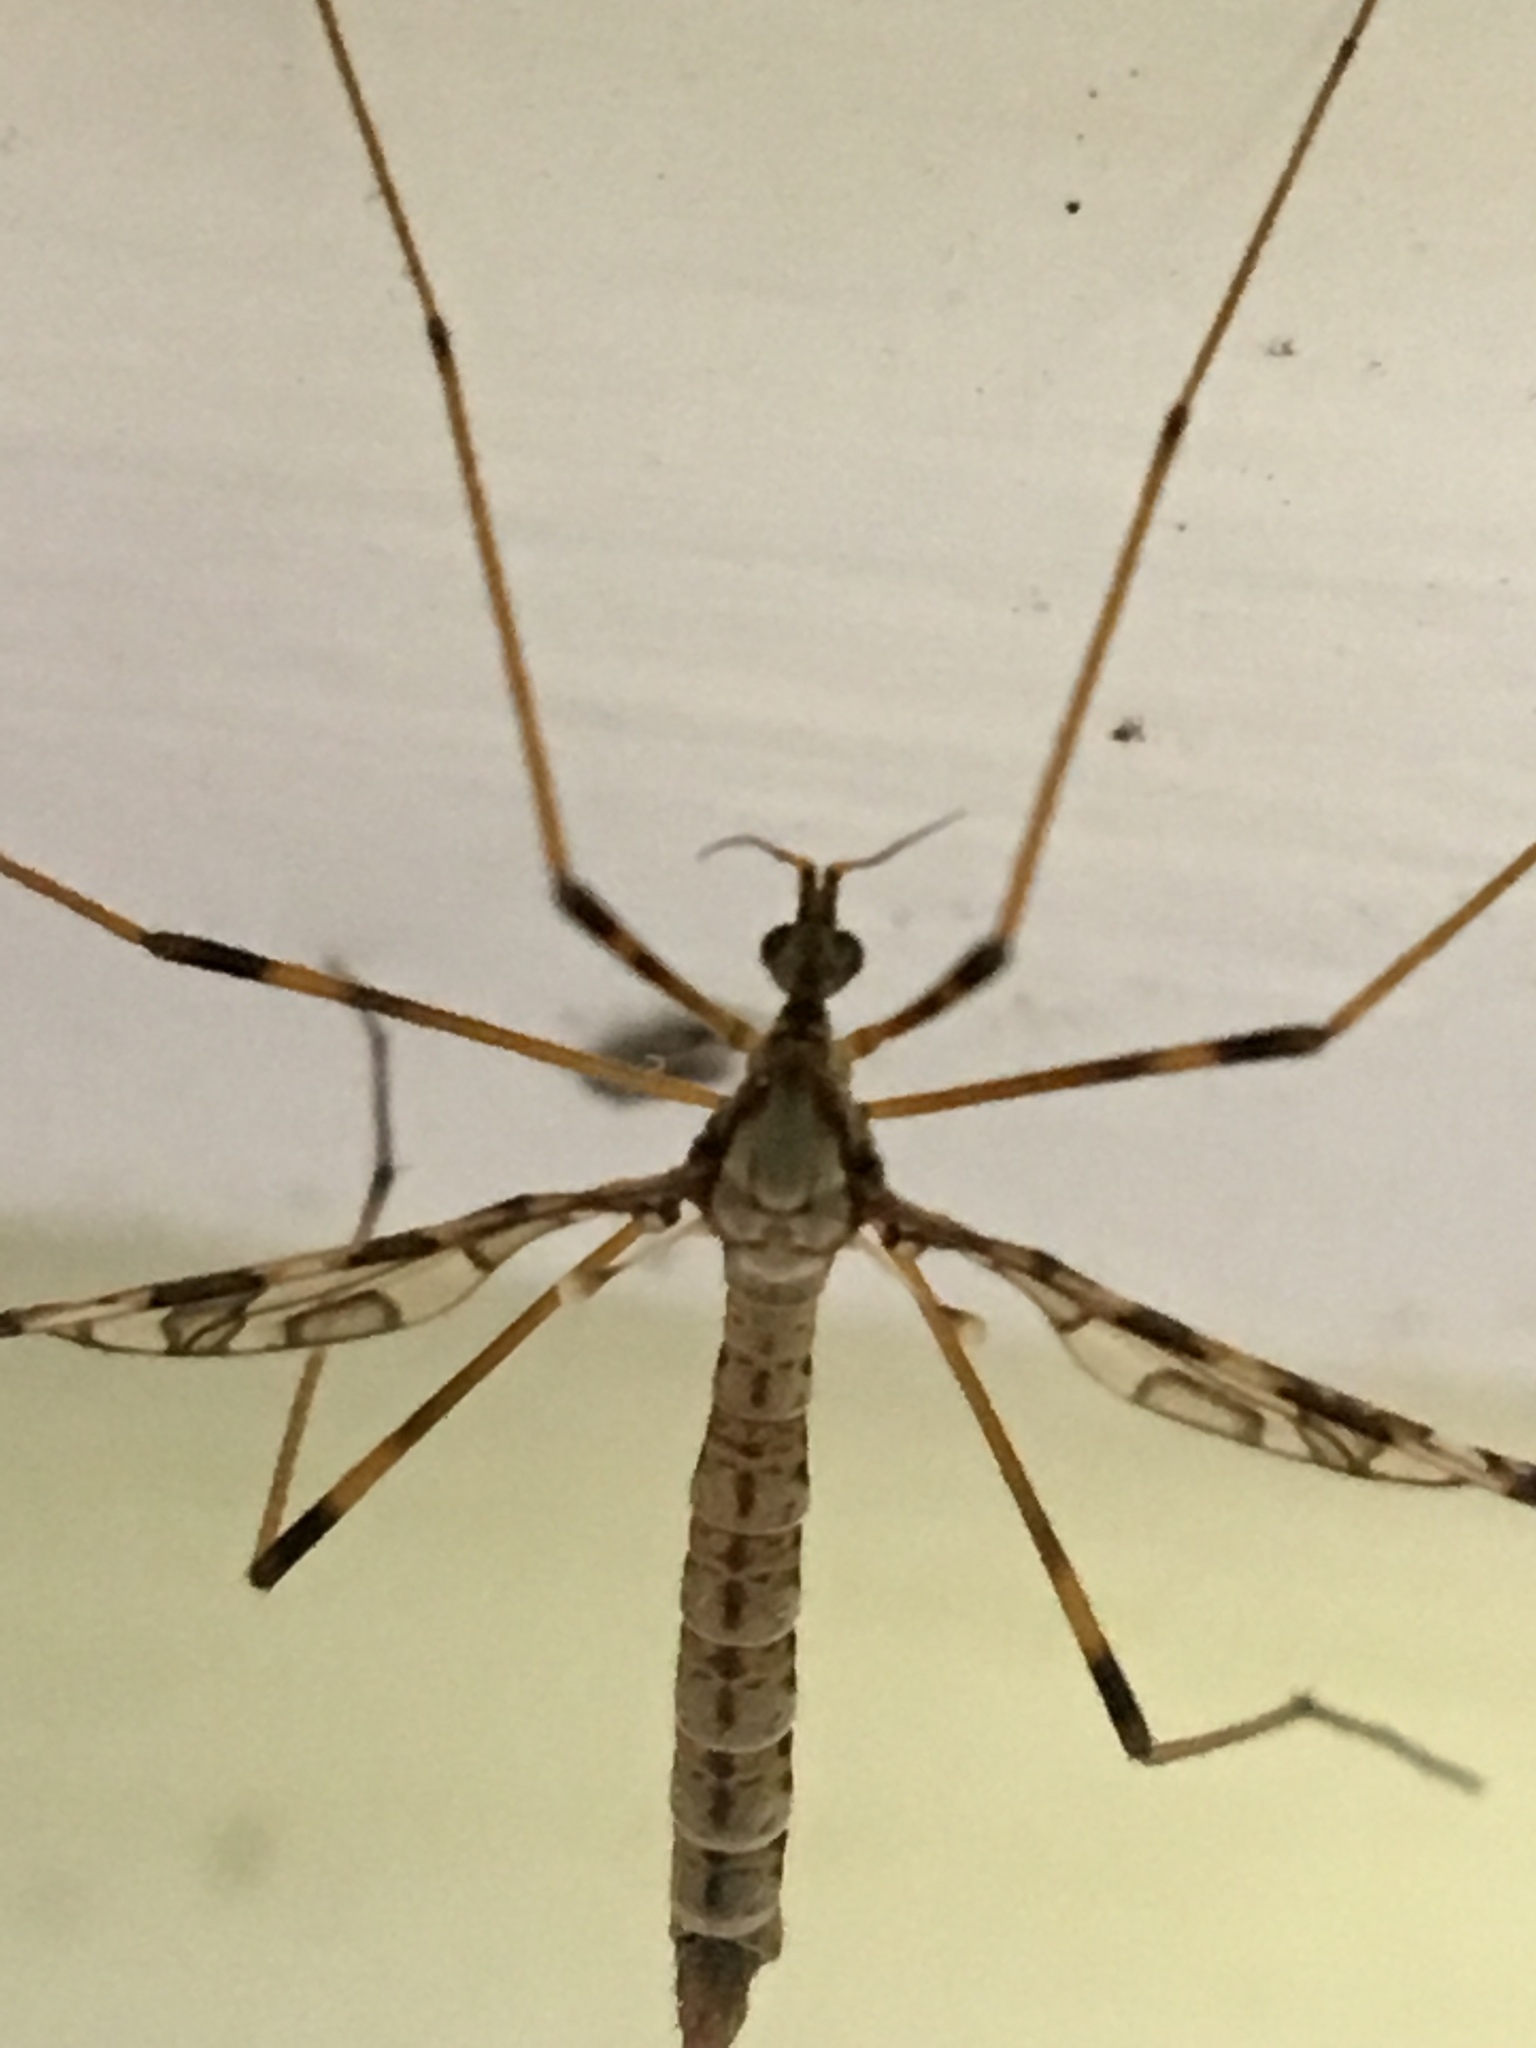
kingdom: Animalia
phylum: Arthropoda
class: Insecta
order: Diptera
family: Limoniidae
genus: Epiphragma
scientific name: Epiphragma fasciapenne
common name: Band-winged crane fly
